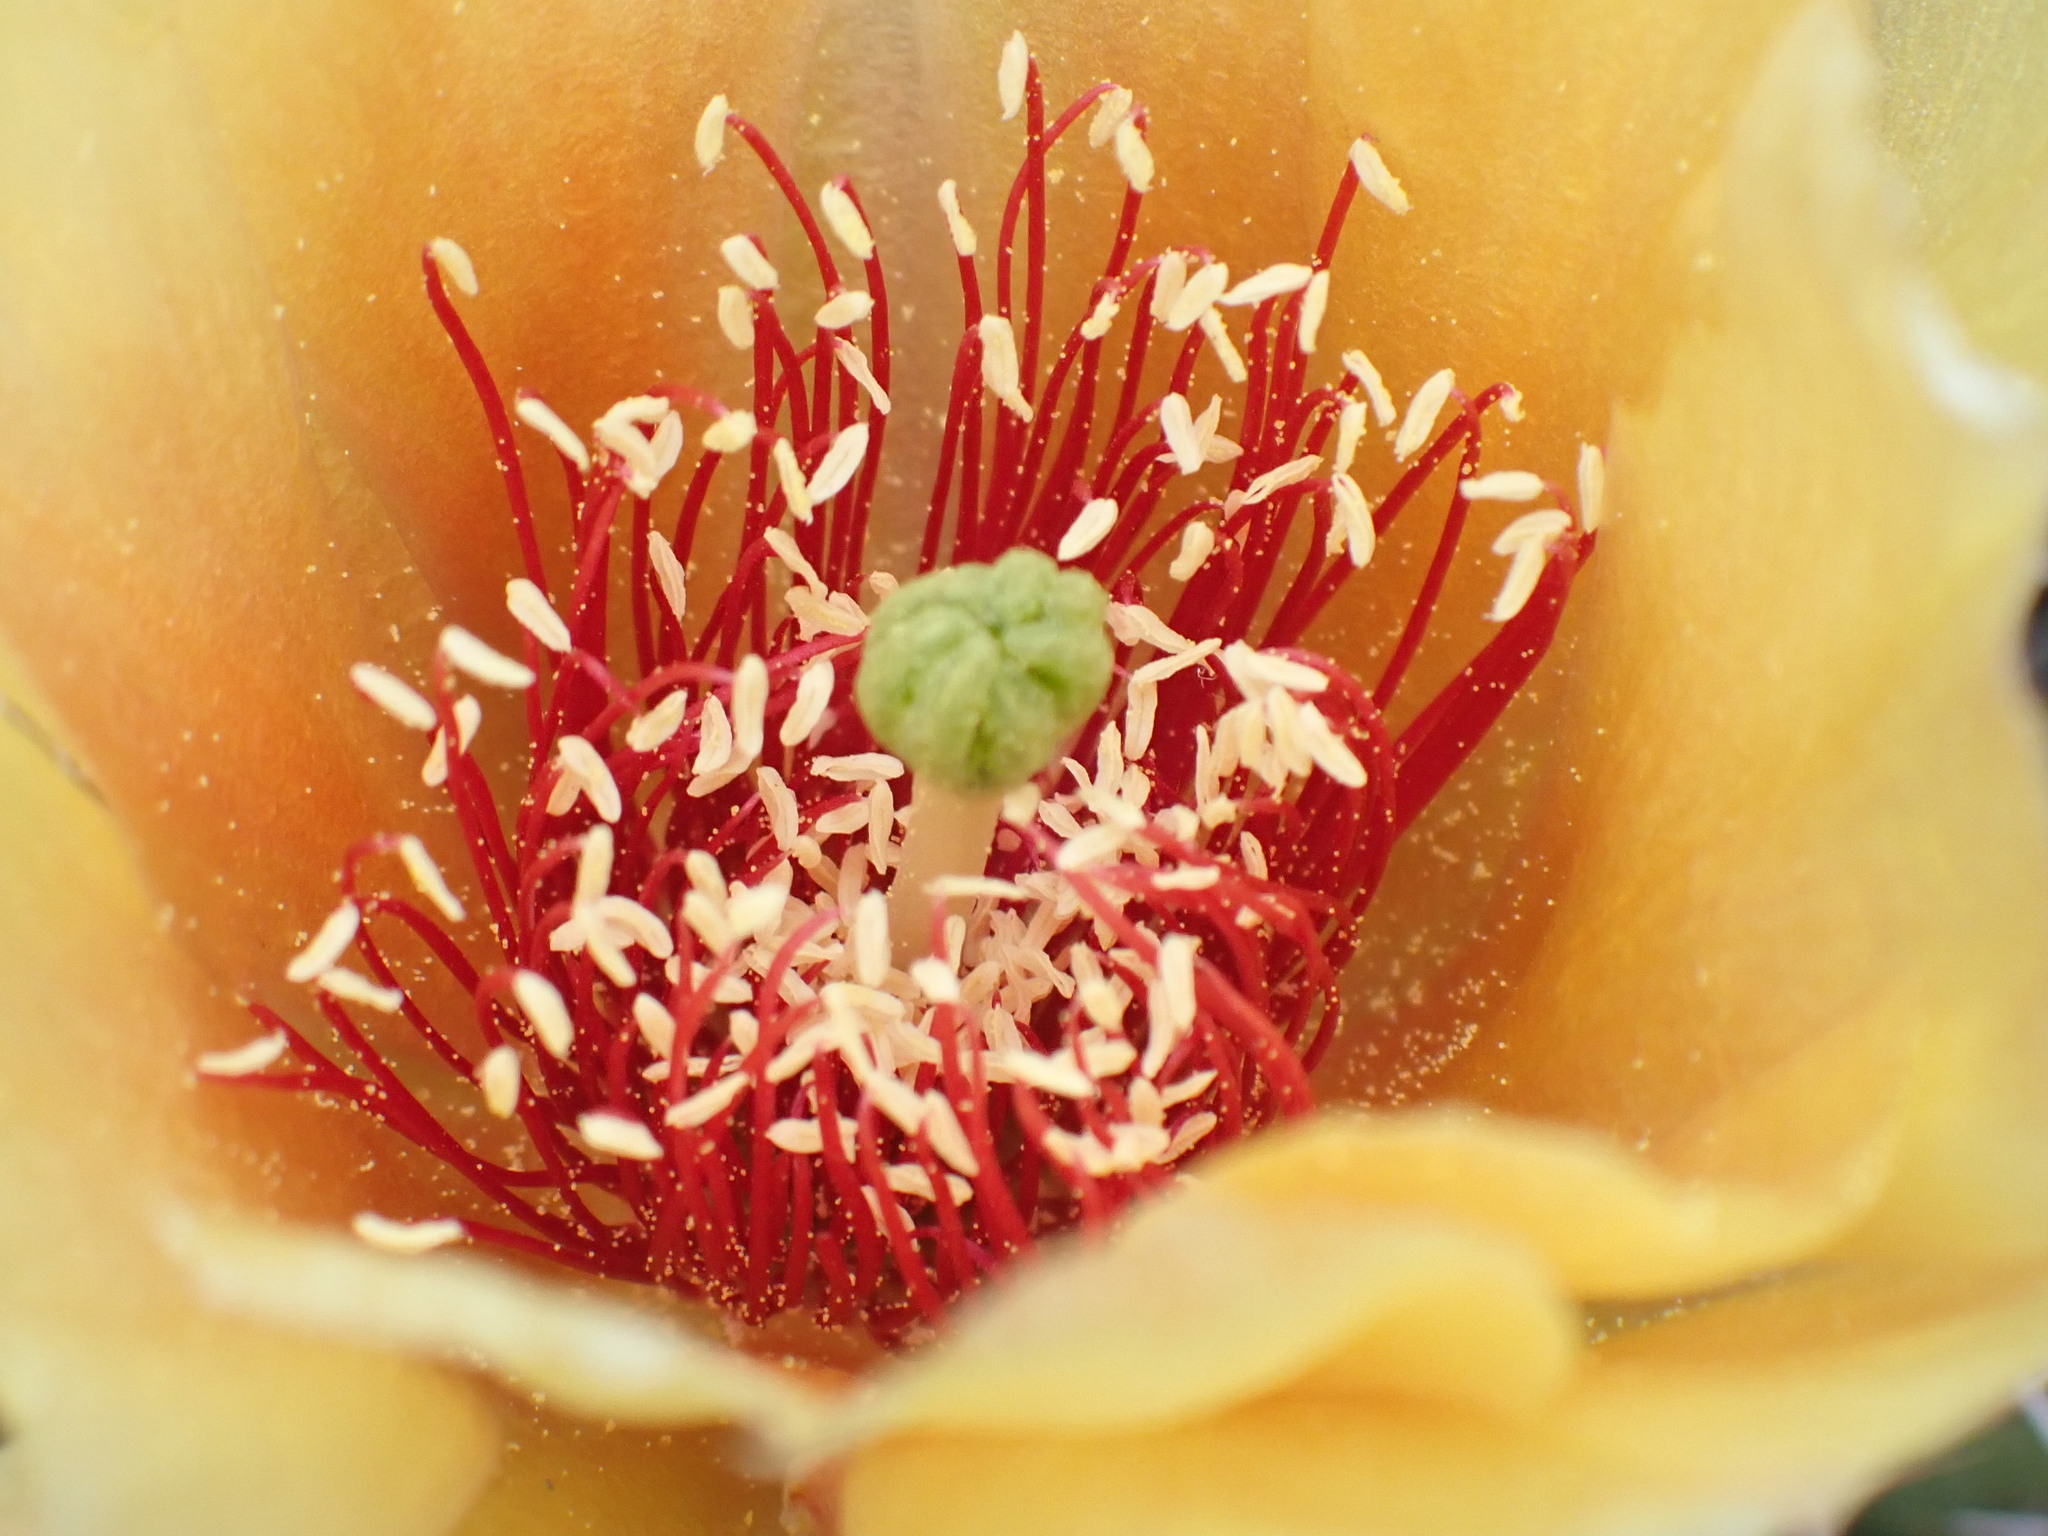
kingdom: Plantae
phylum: Tracheophyta
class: Magnoliopsida
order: Caryophyllales
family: Cactaceae
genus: Opuntia
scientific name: Opuntia fragilis
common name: Brittle cactus
